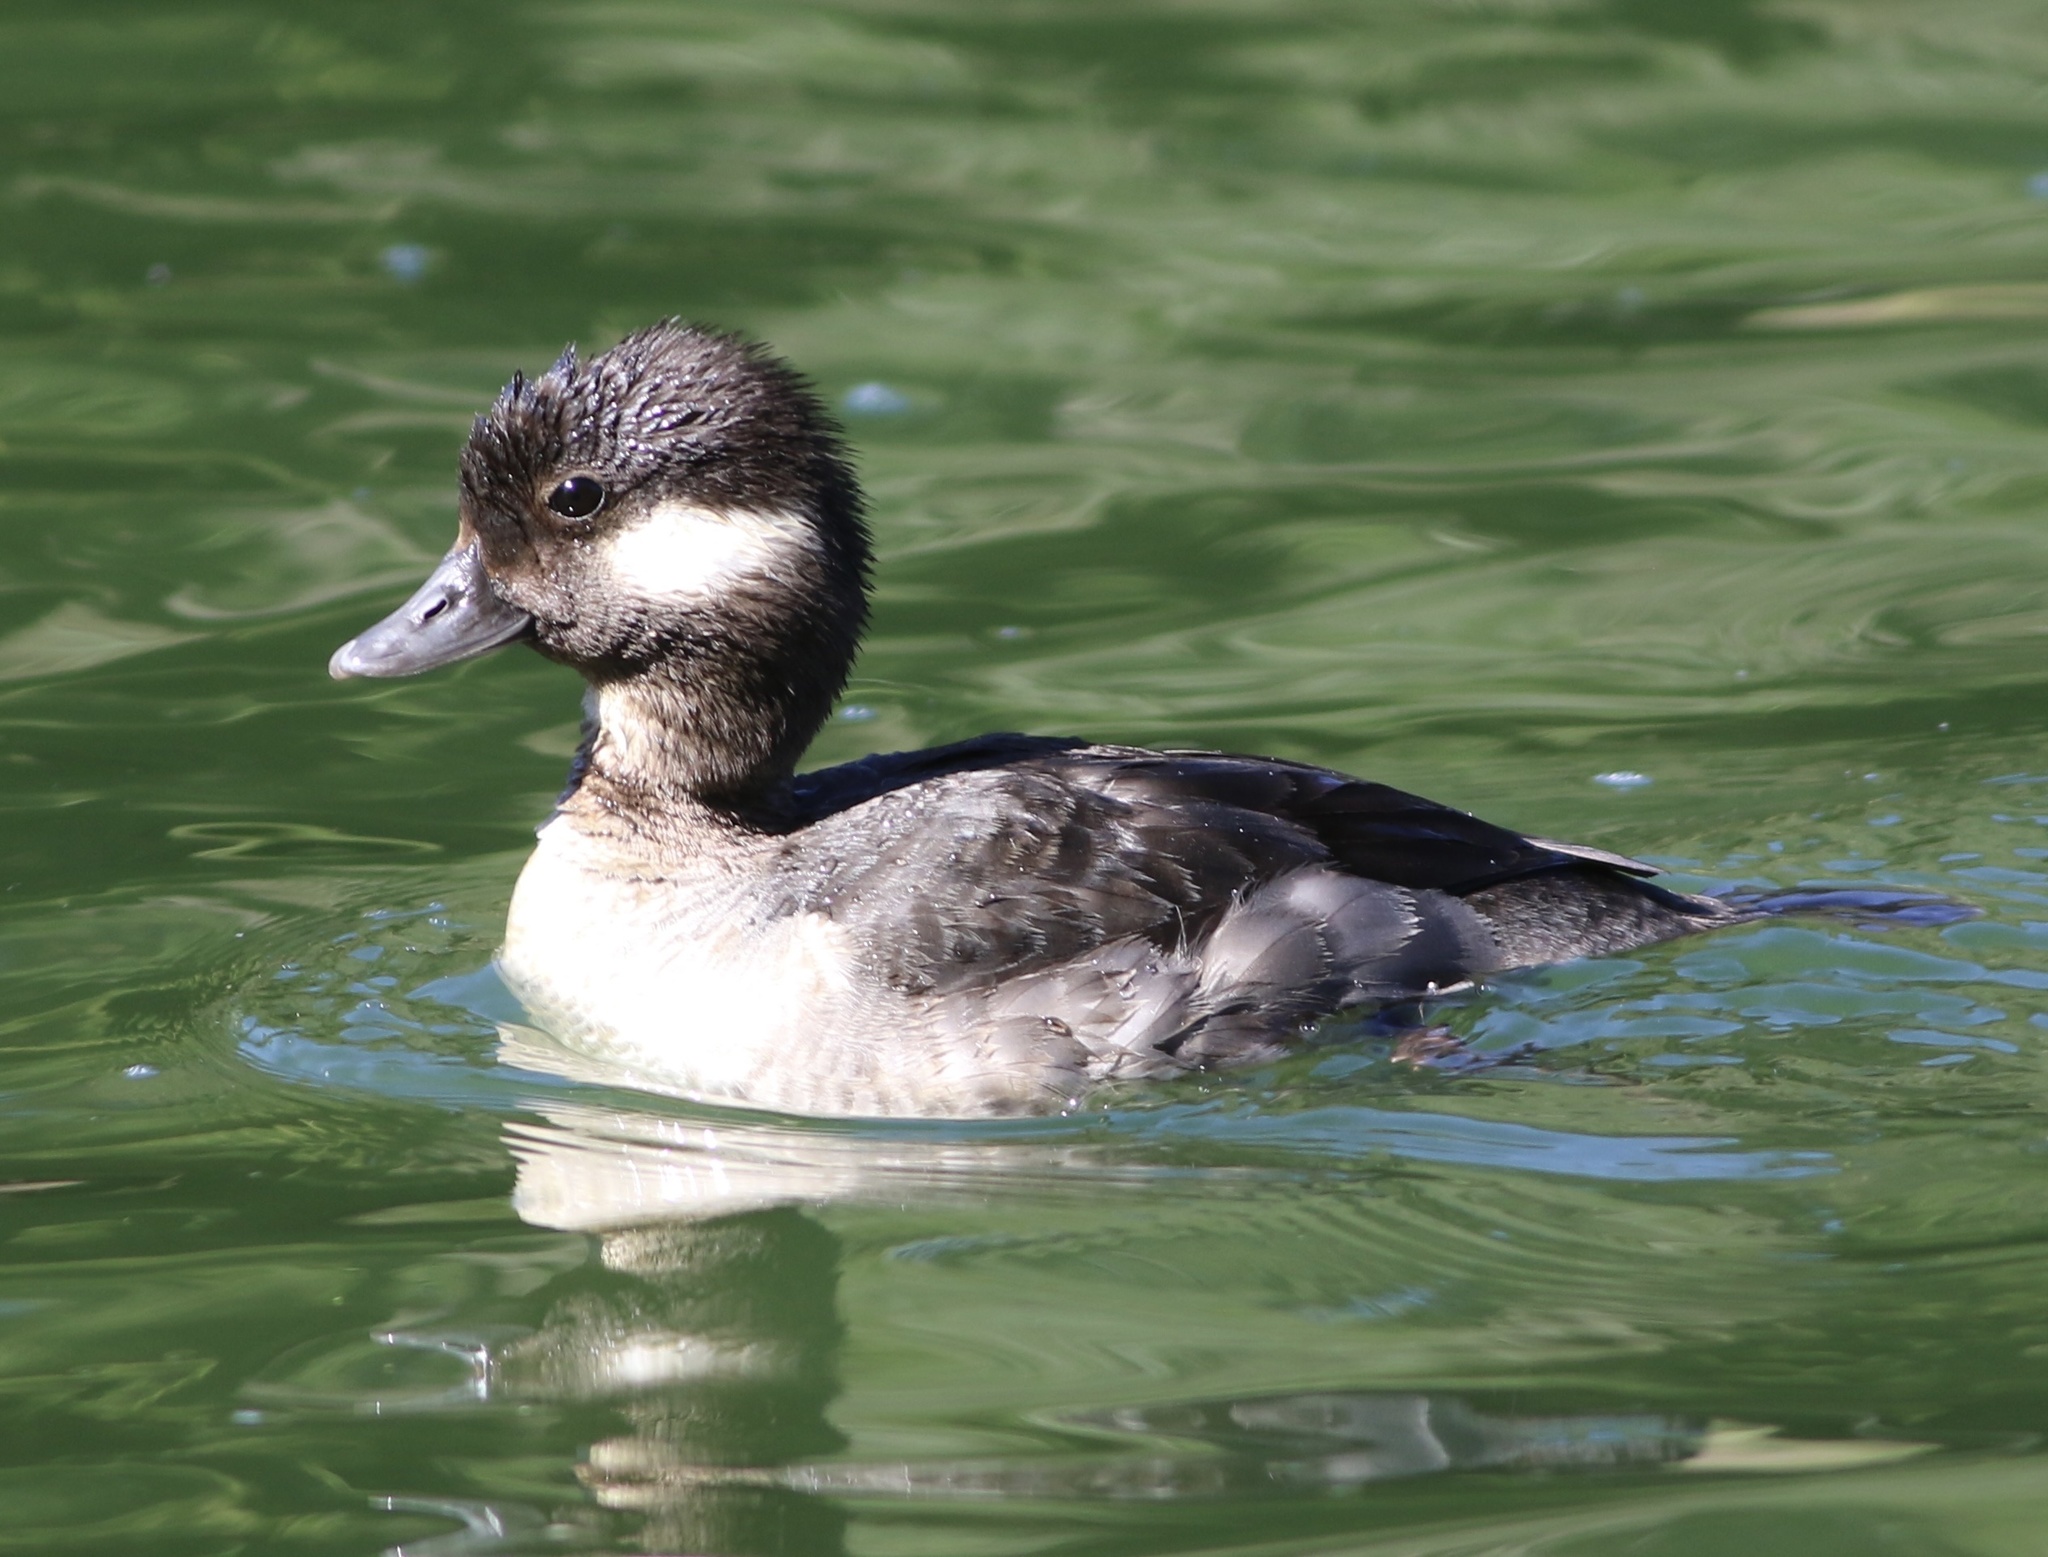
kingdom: Animalia
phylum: Chordata
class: Aves
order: Anseriformes
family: Anatidae
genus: Bucephala
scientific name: Bucephala albeola
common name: Bufflehead
